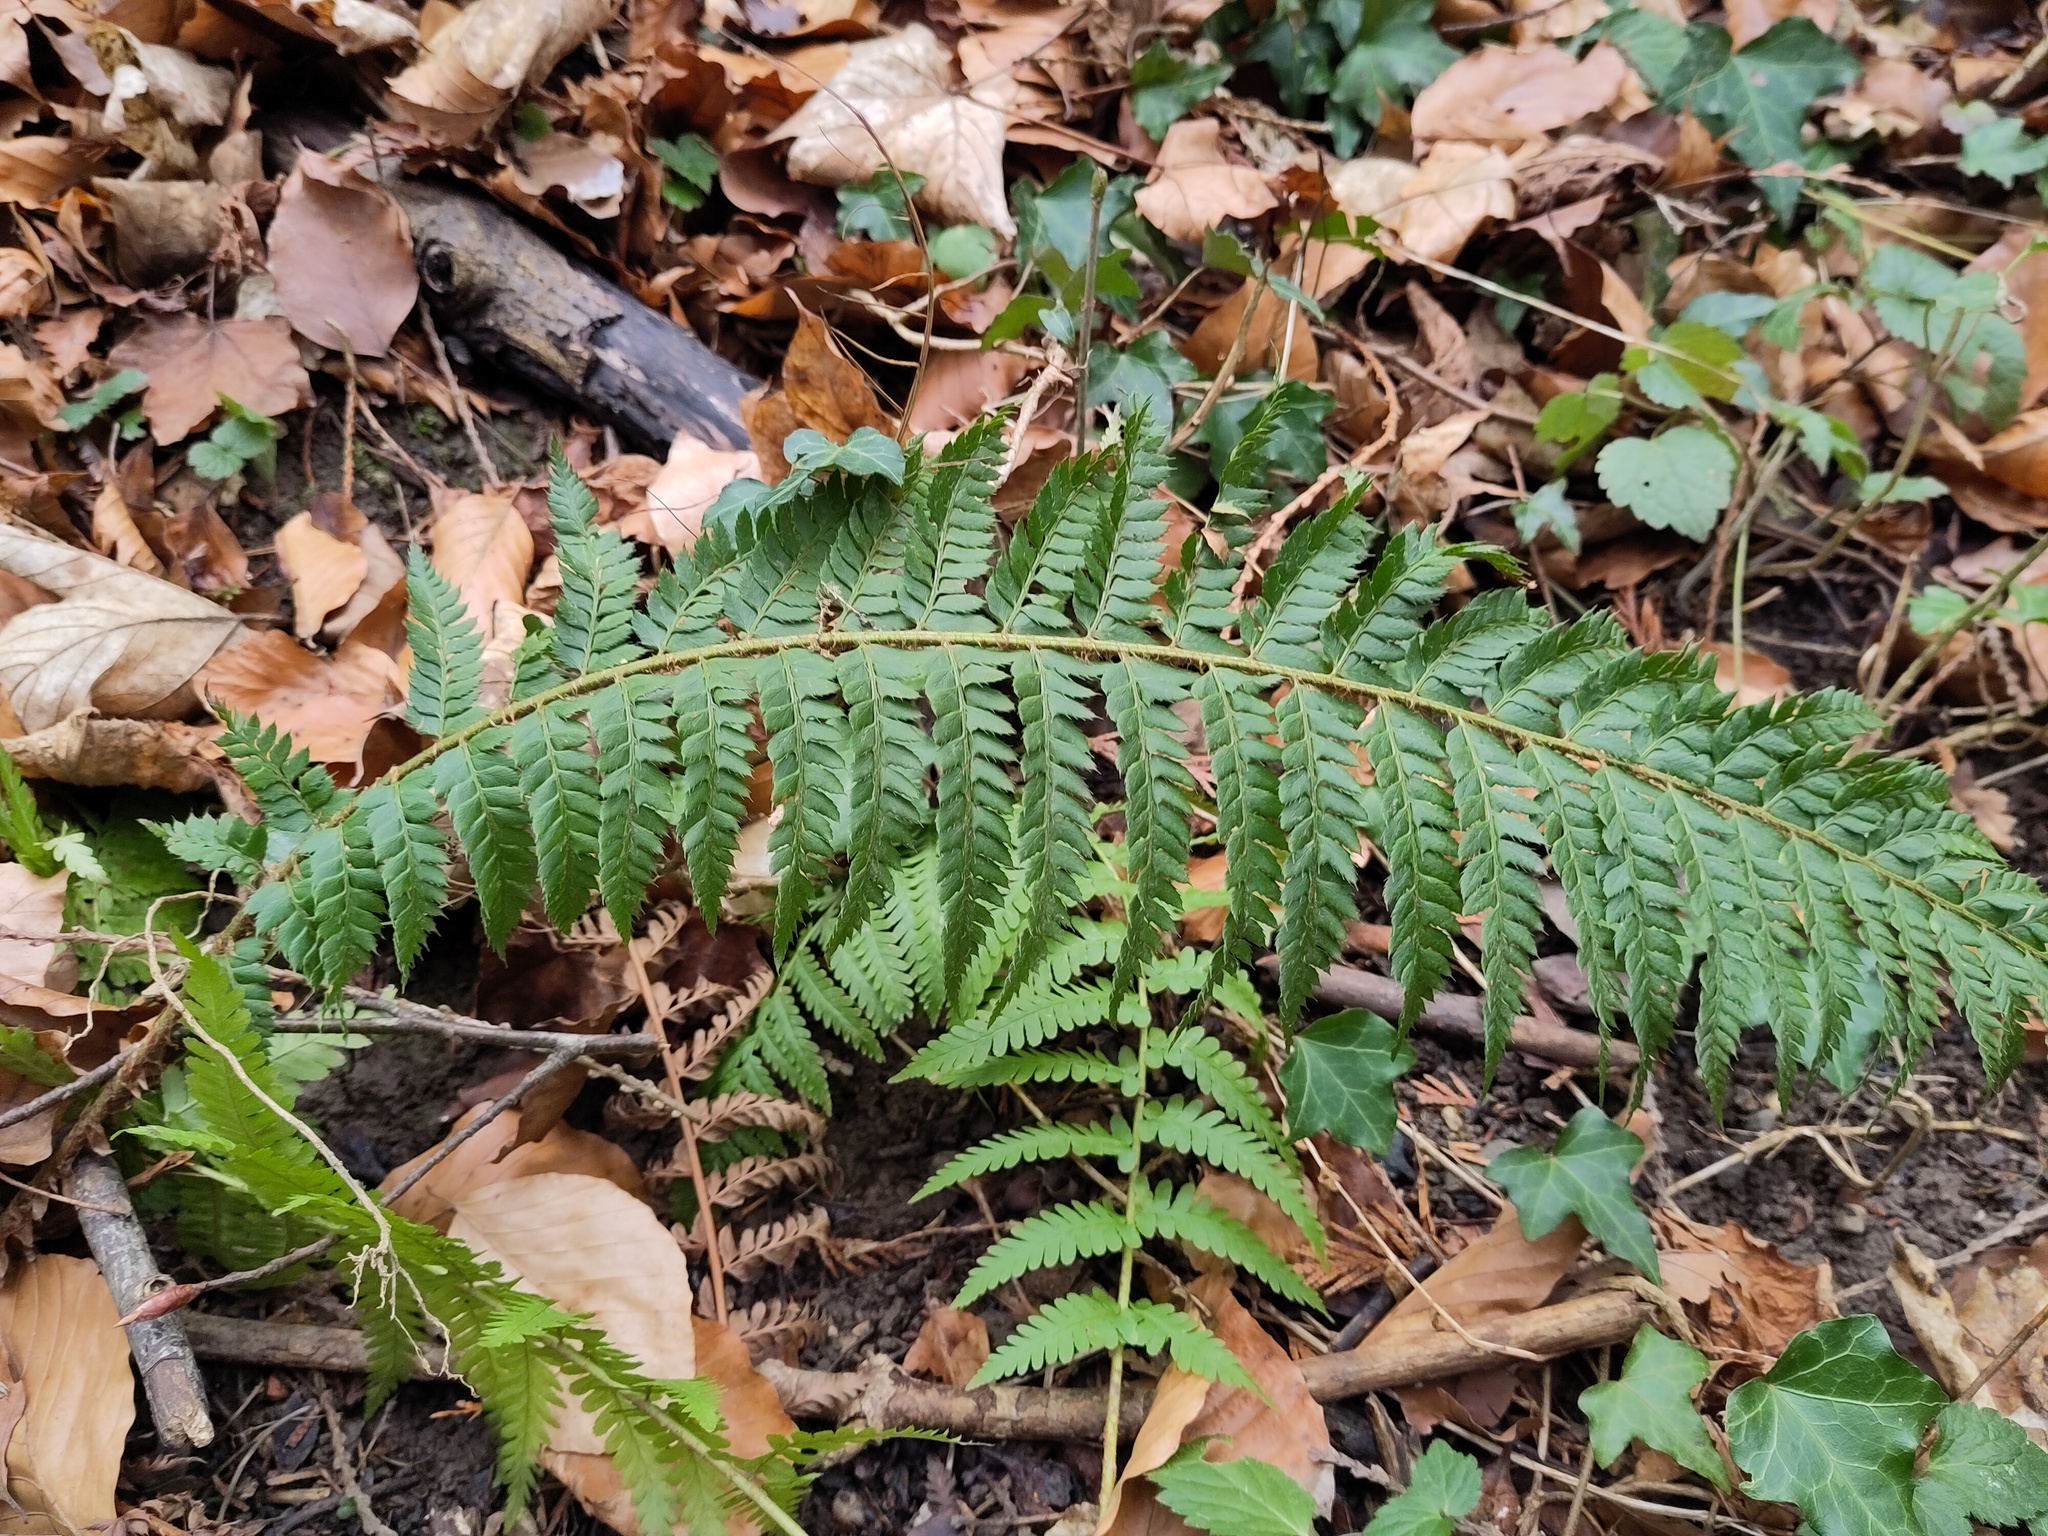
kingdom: Plantae
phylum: Tracheophyta
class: Polypodiopsida
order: Polypodiales
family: Dryopteridaceae
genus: Polystichum
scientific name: Polystichum aculeatum
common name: Hard shield-fern
